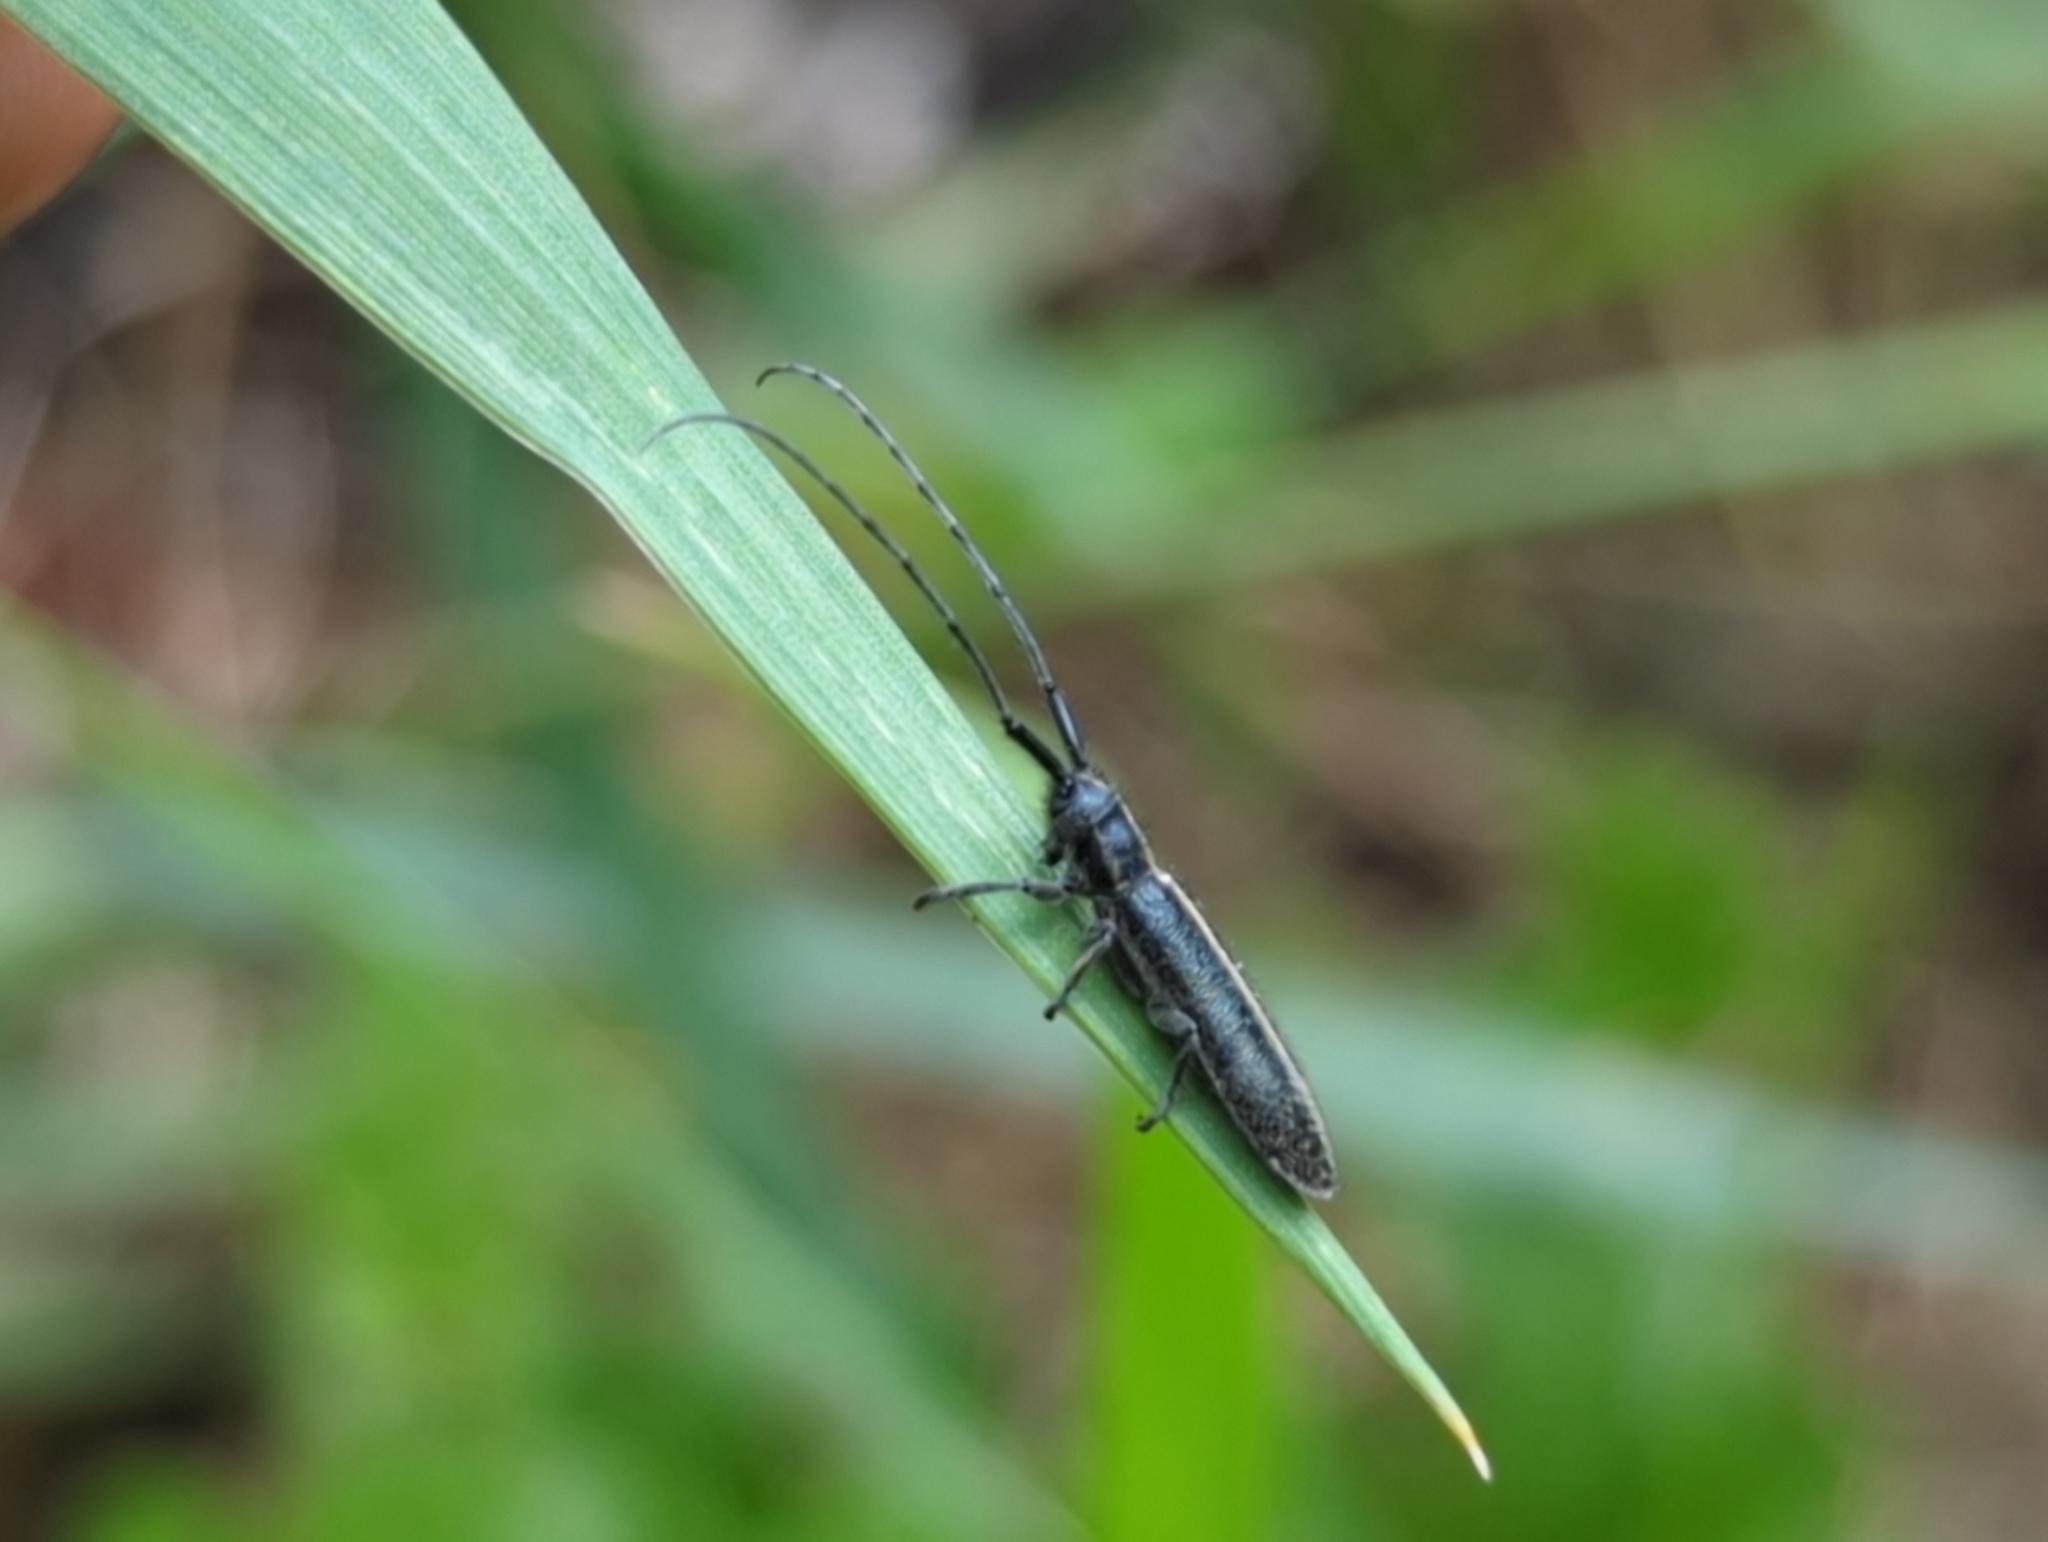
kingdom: Animalia
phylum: Arthropoda
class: Insecta
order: Coleoptera
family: Cerambycidae
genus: Agapanthia
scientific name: Agapanthia cardui
